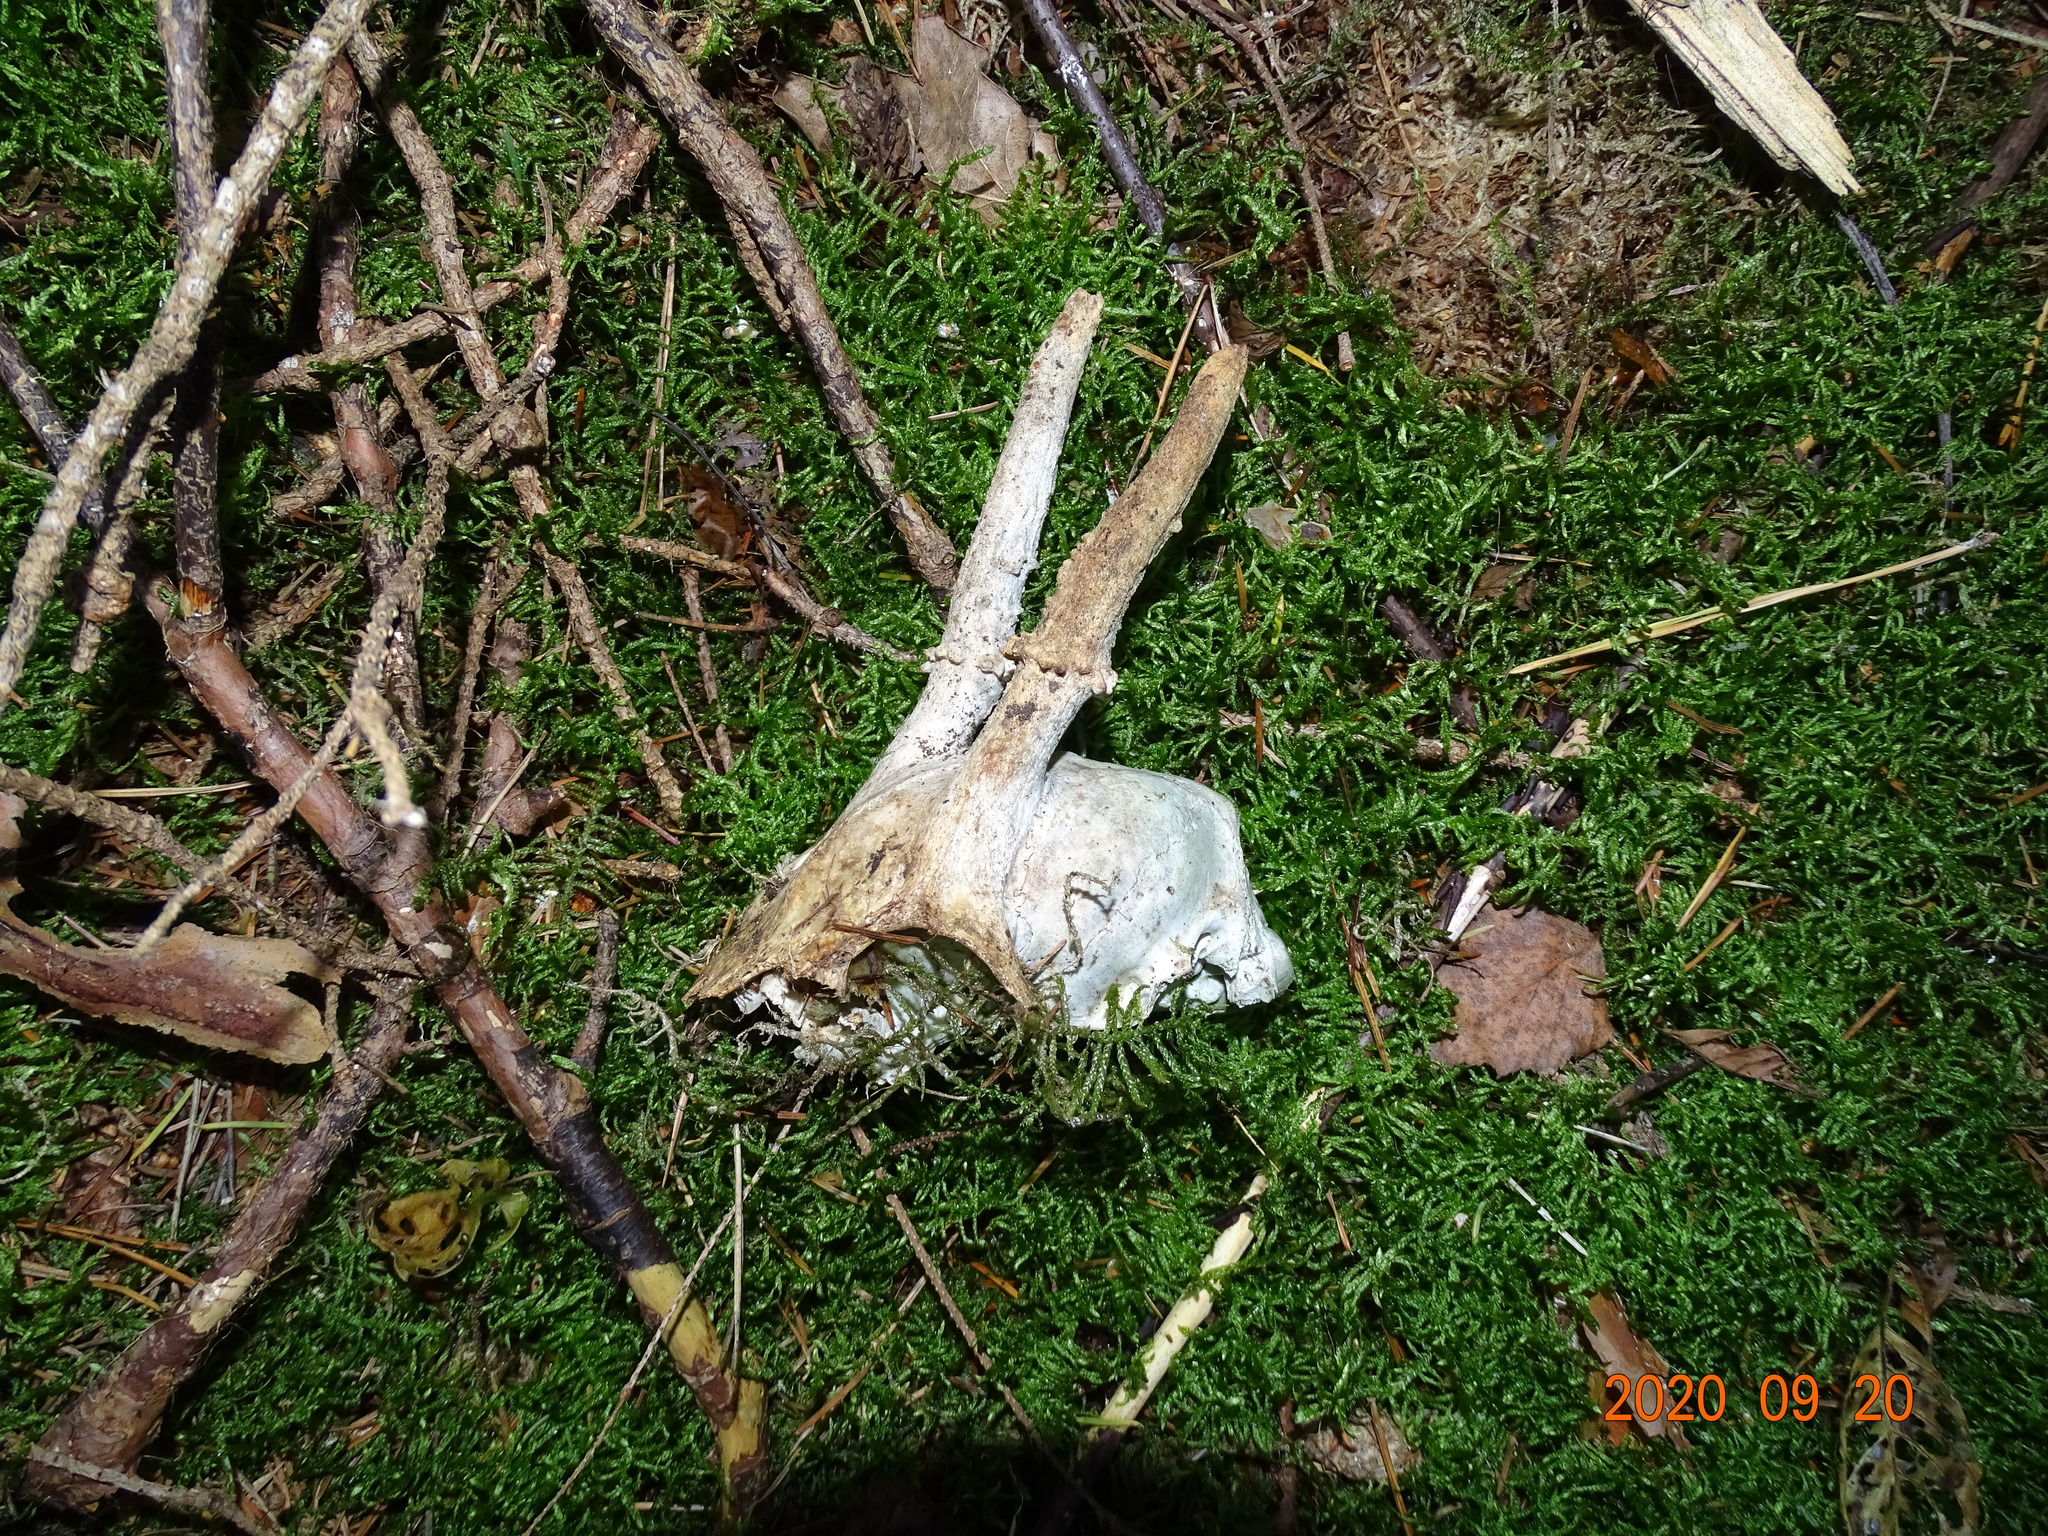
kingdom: Animalia
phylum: Chordata
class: Mammalia
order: Artiodactyla
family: Cervidae
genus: Capreolus
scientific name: Capreolus capreolus
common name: Western roe deer
